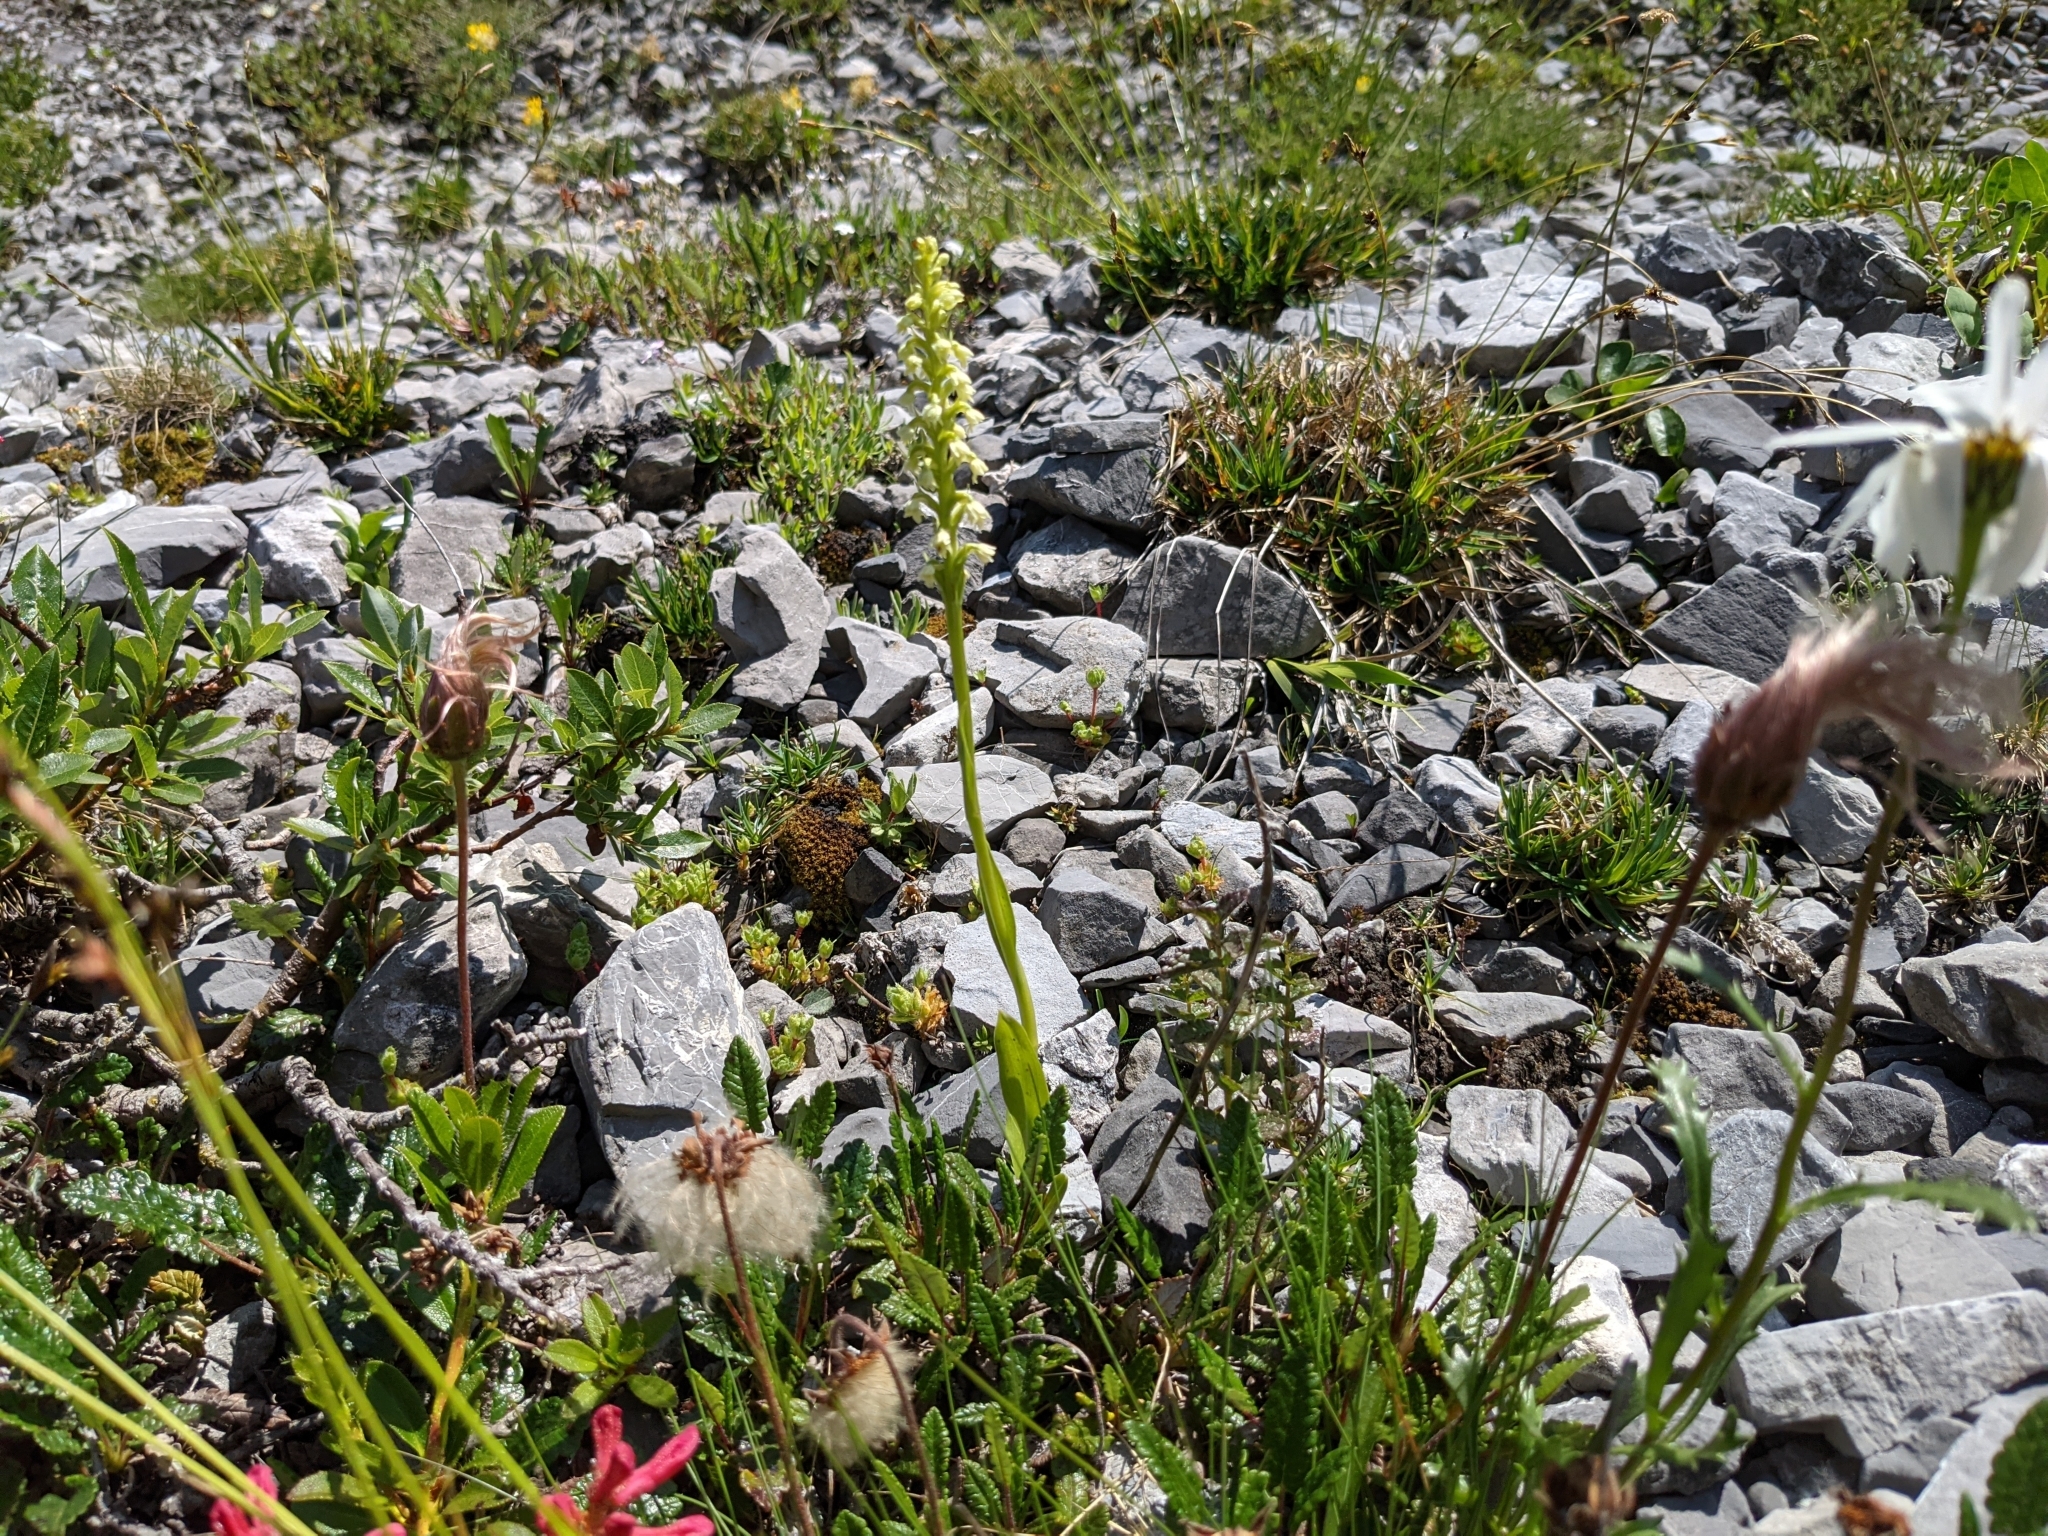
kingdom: Plantae
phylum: Tracheophyta
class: Liliopsida
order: Asparagales
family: Orchidaceae
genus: Pseudorchis
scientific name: Pseudorchis albida
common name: Small-white orchid
